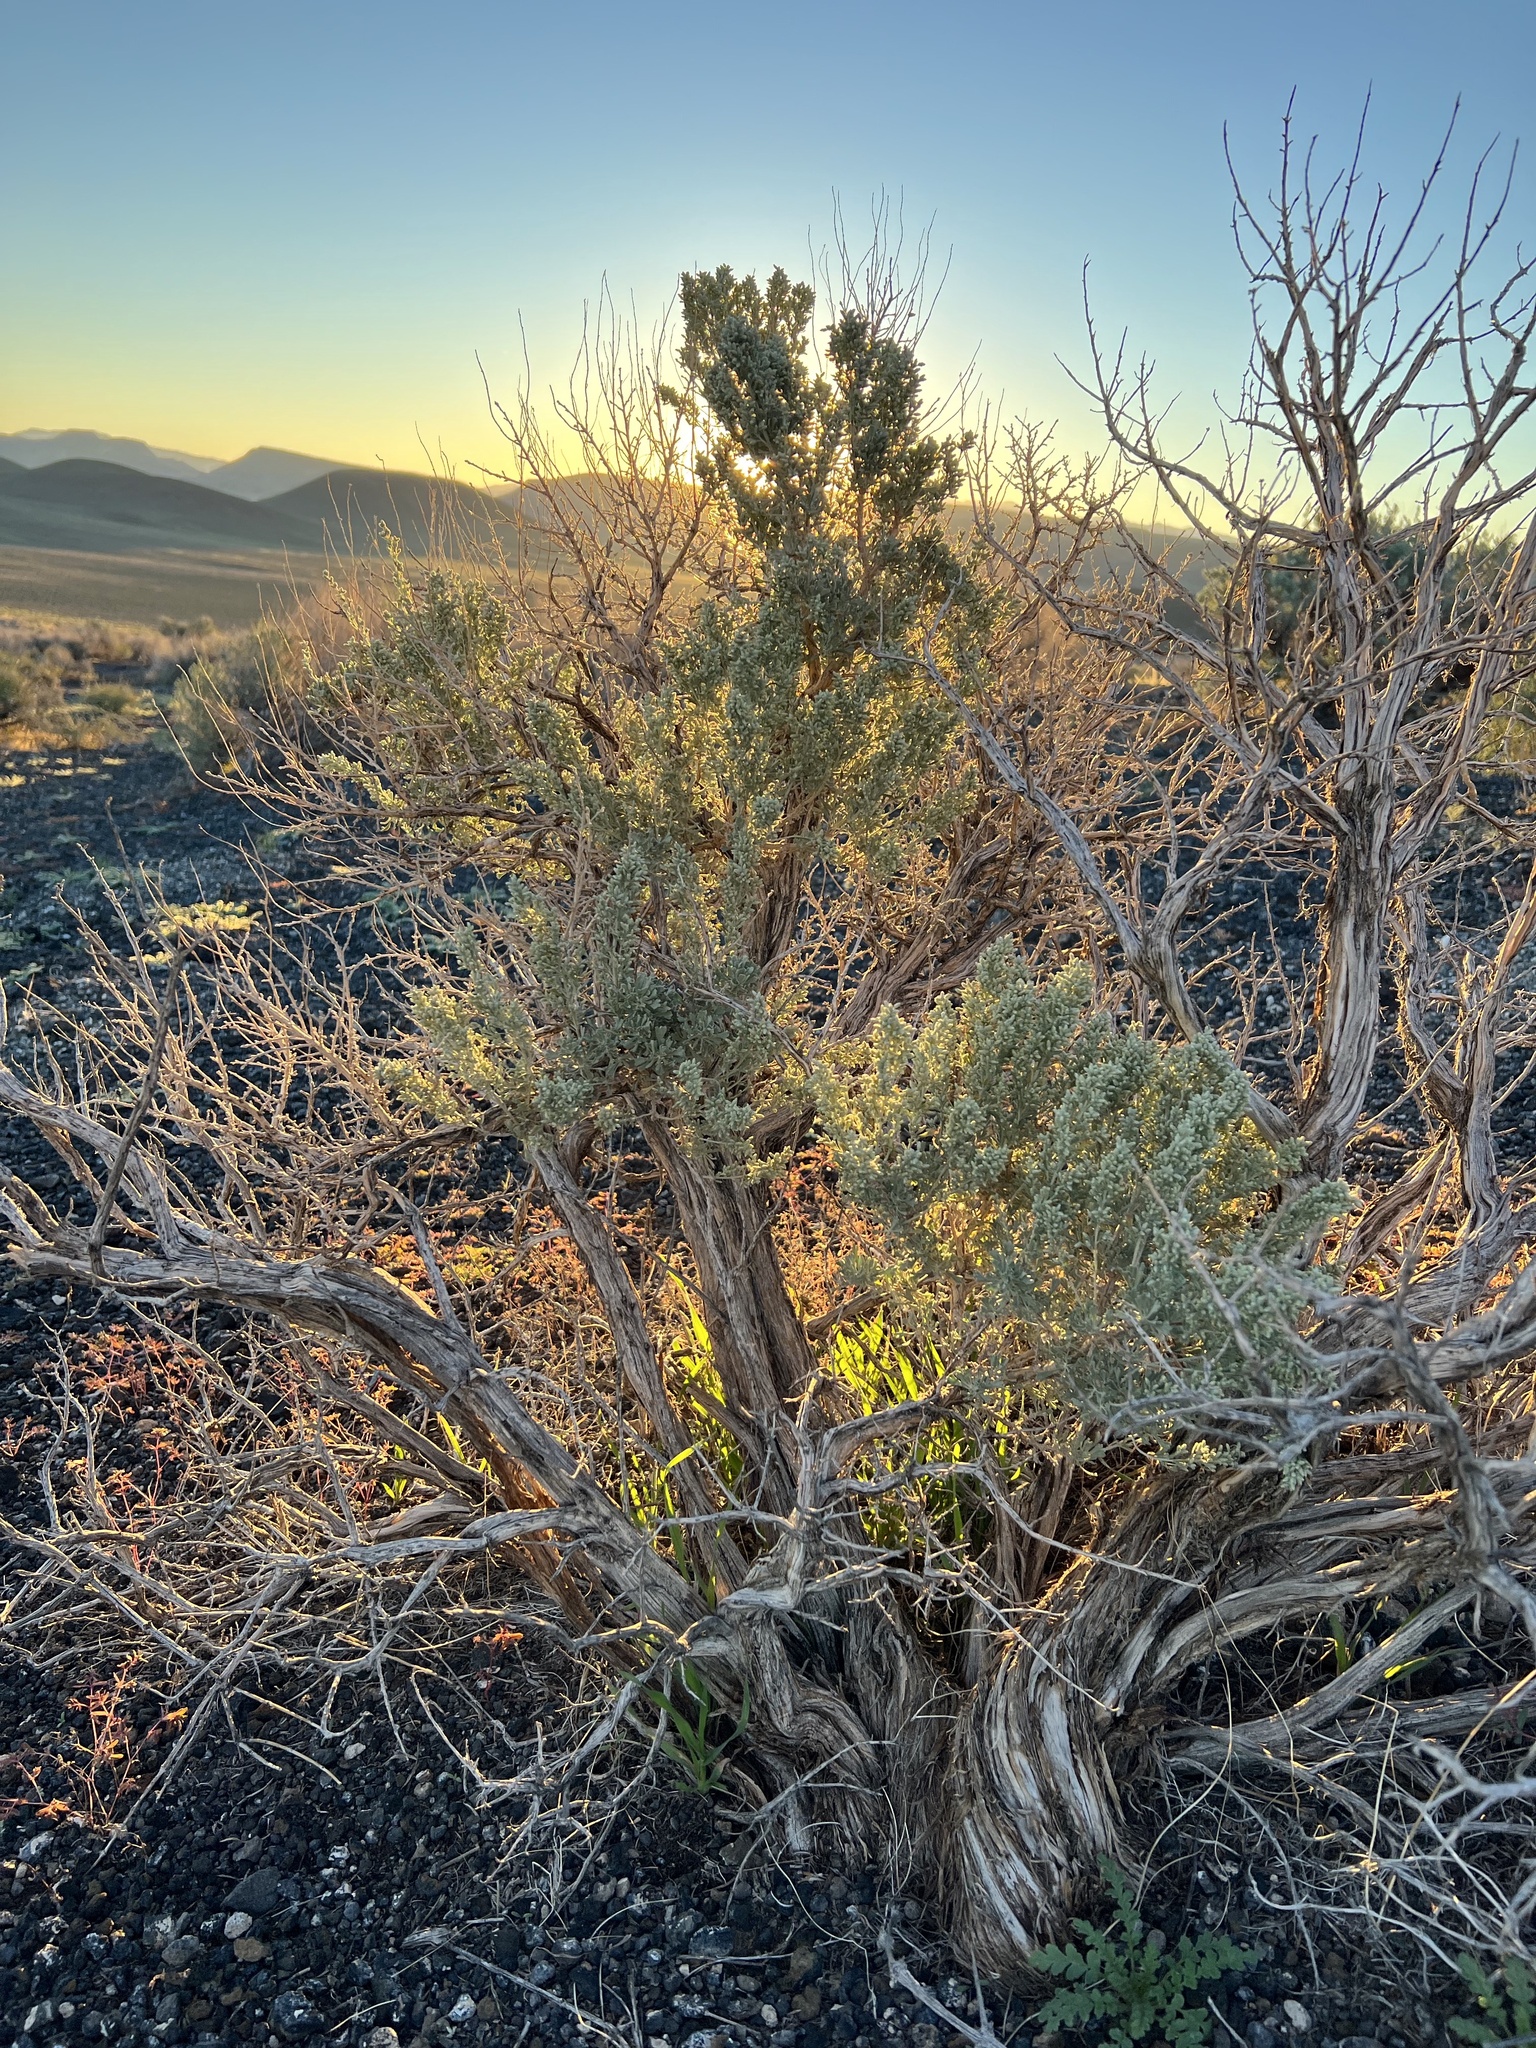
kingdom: Plantae
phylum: Tracheophyta
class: Magnoliopsida
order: Asterales
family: Asteraceae
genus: Artemisia
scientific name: Artemisia tridentata
